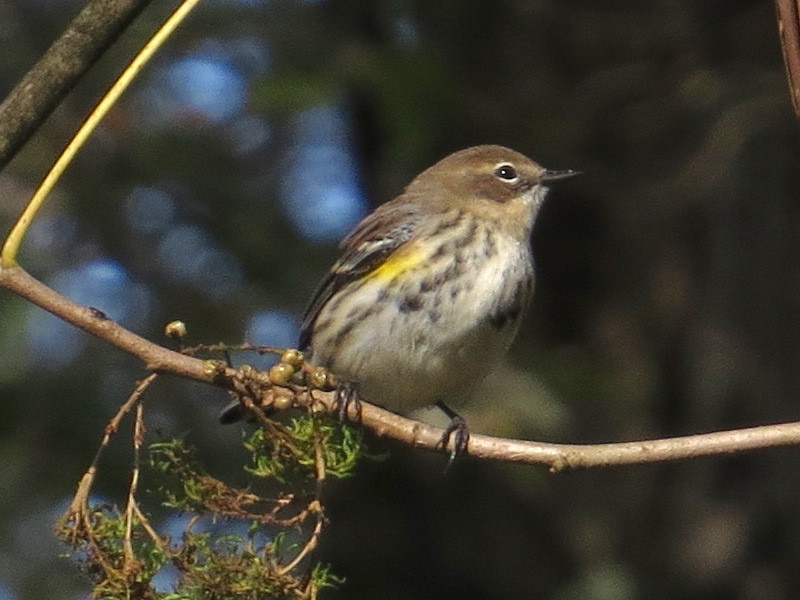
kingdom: Animalia
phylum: Chordata
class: Aves
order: Passeriformes
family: Parulidae
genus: Setophaga
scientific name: Setophaga coronata
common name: Myrtle warbler
